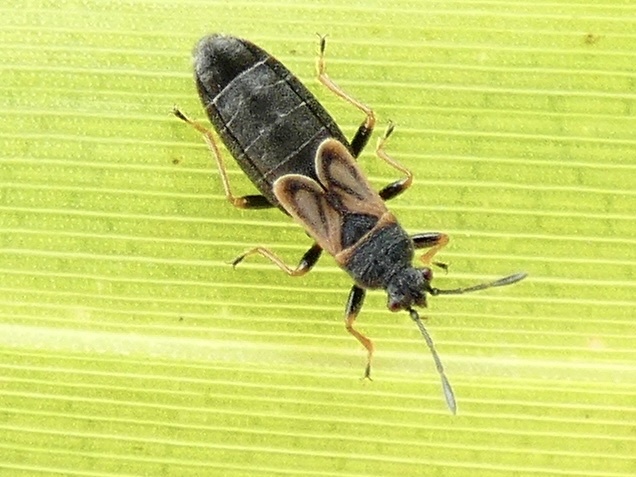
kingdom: Animalia
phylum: Arthropoda
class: Insecta
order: Hemiptera
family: Blissidae
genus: Ischnodemus
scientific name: Ischnodemus sabuleti
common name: European cinchbug
